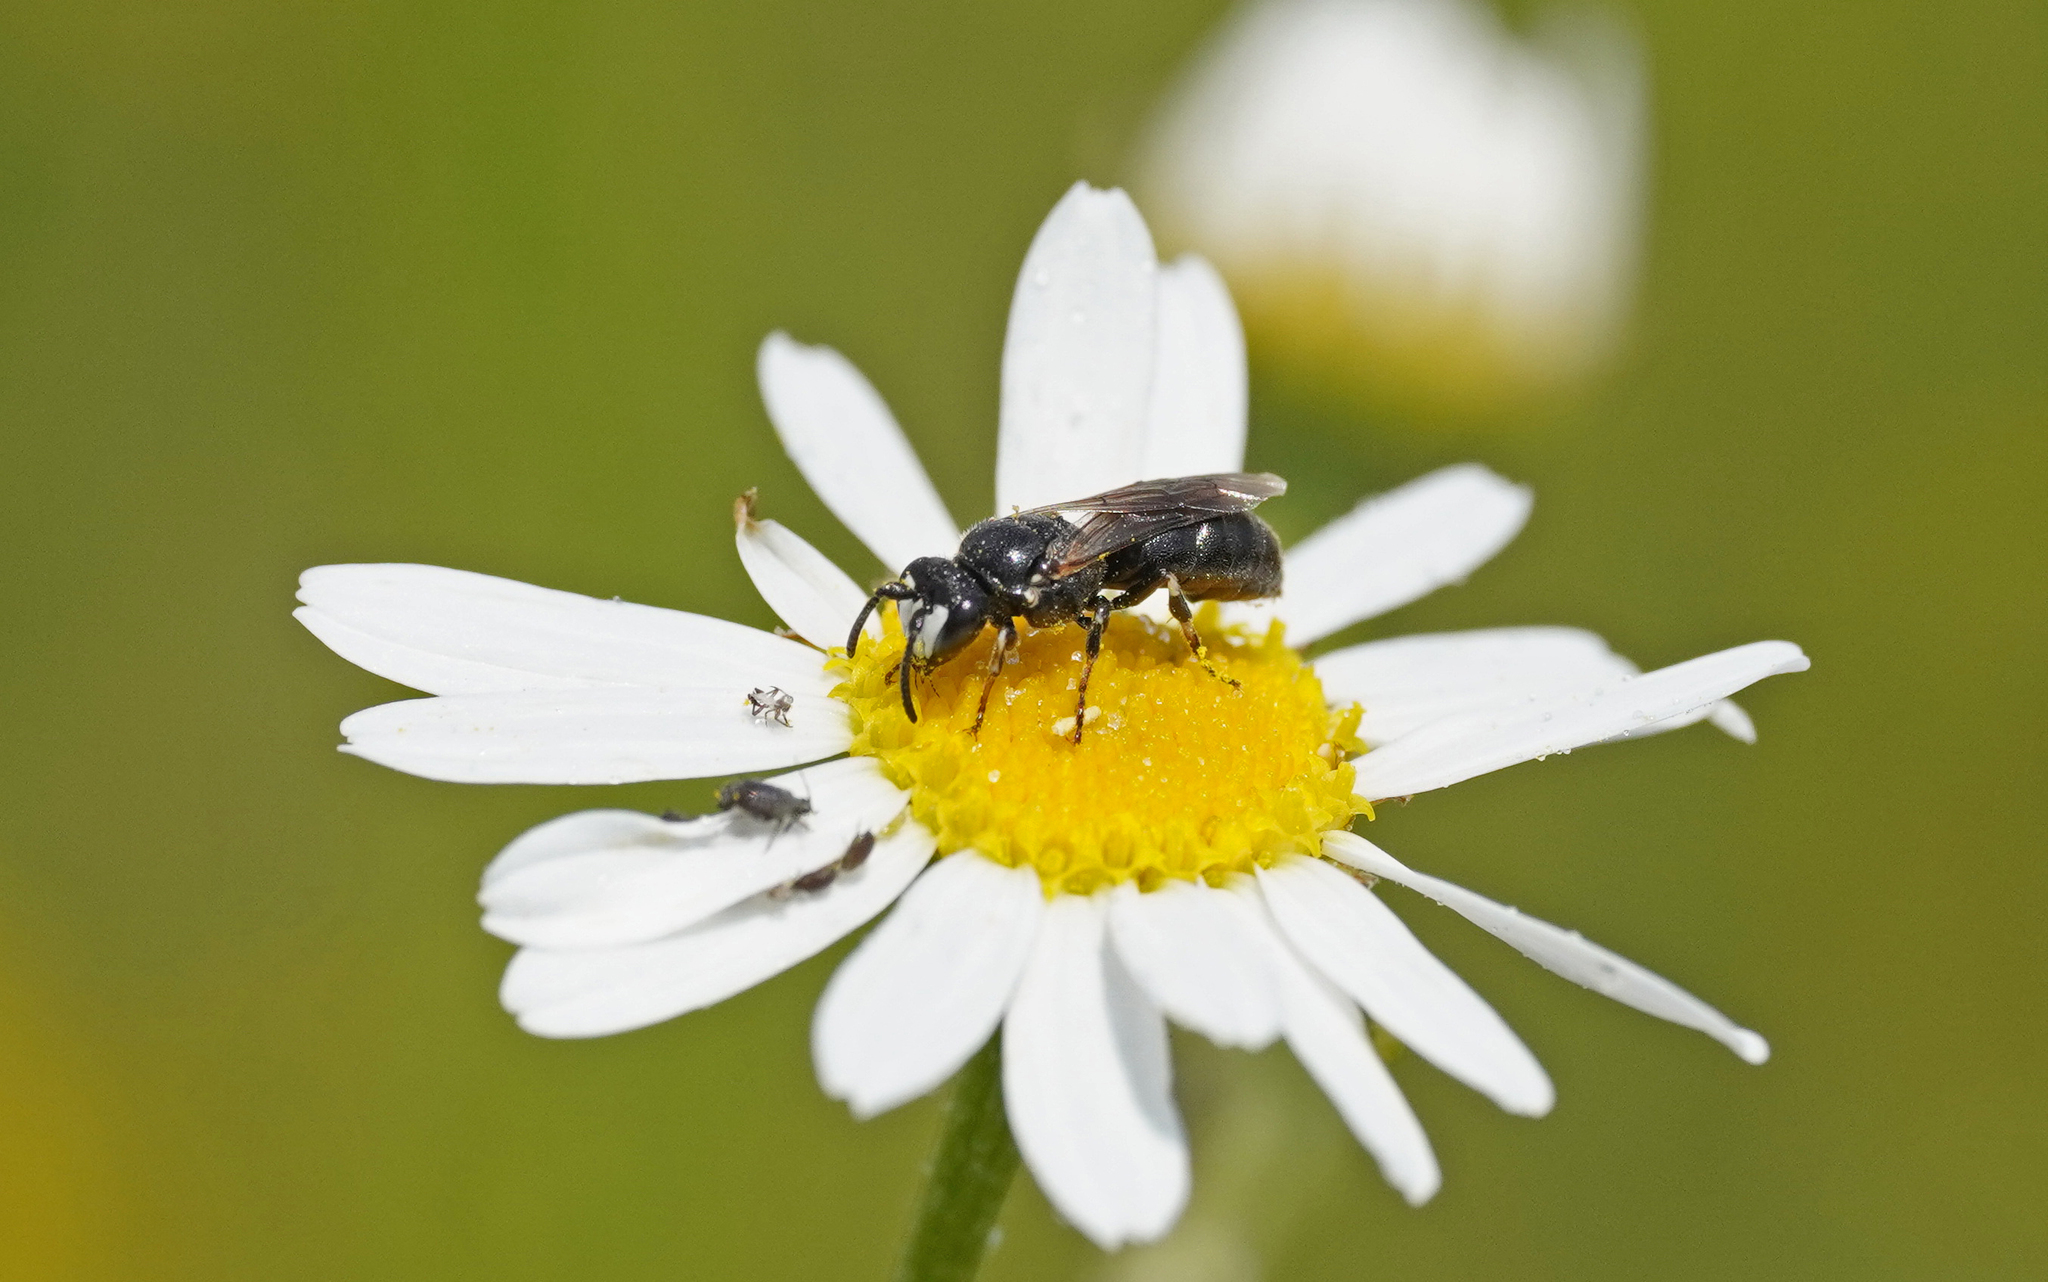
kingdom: Animalia
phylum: Arthropoda
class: Insecta
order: Hymenoptera
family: Colletidae
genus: Hylaeus
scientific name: Hylaeus nigritus
